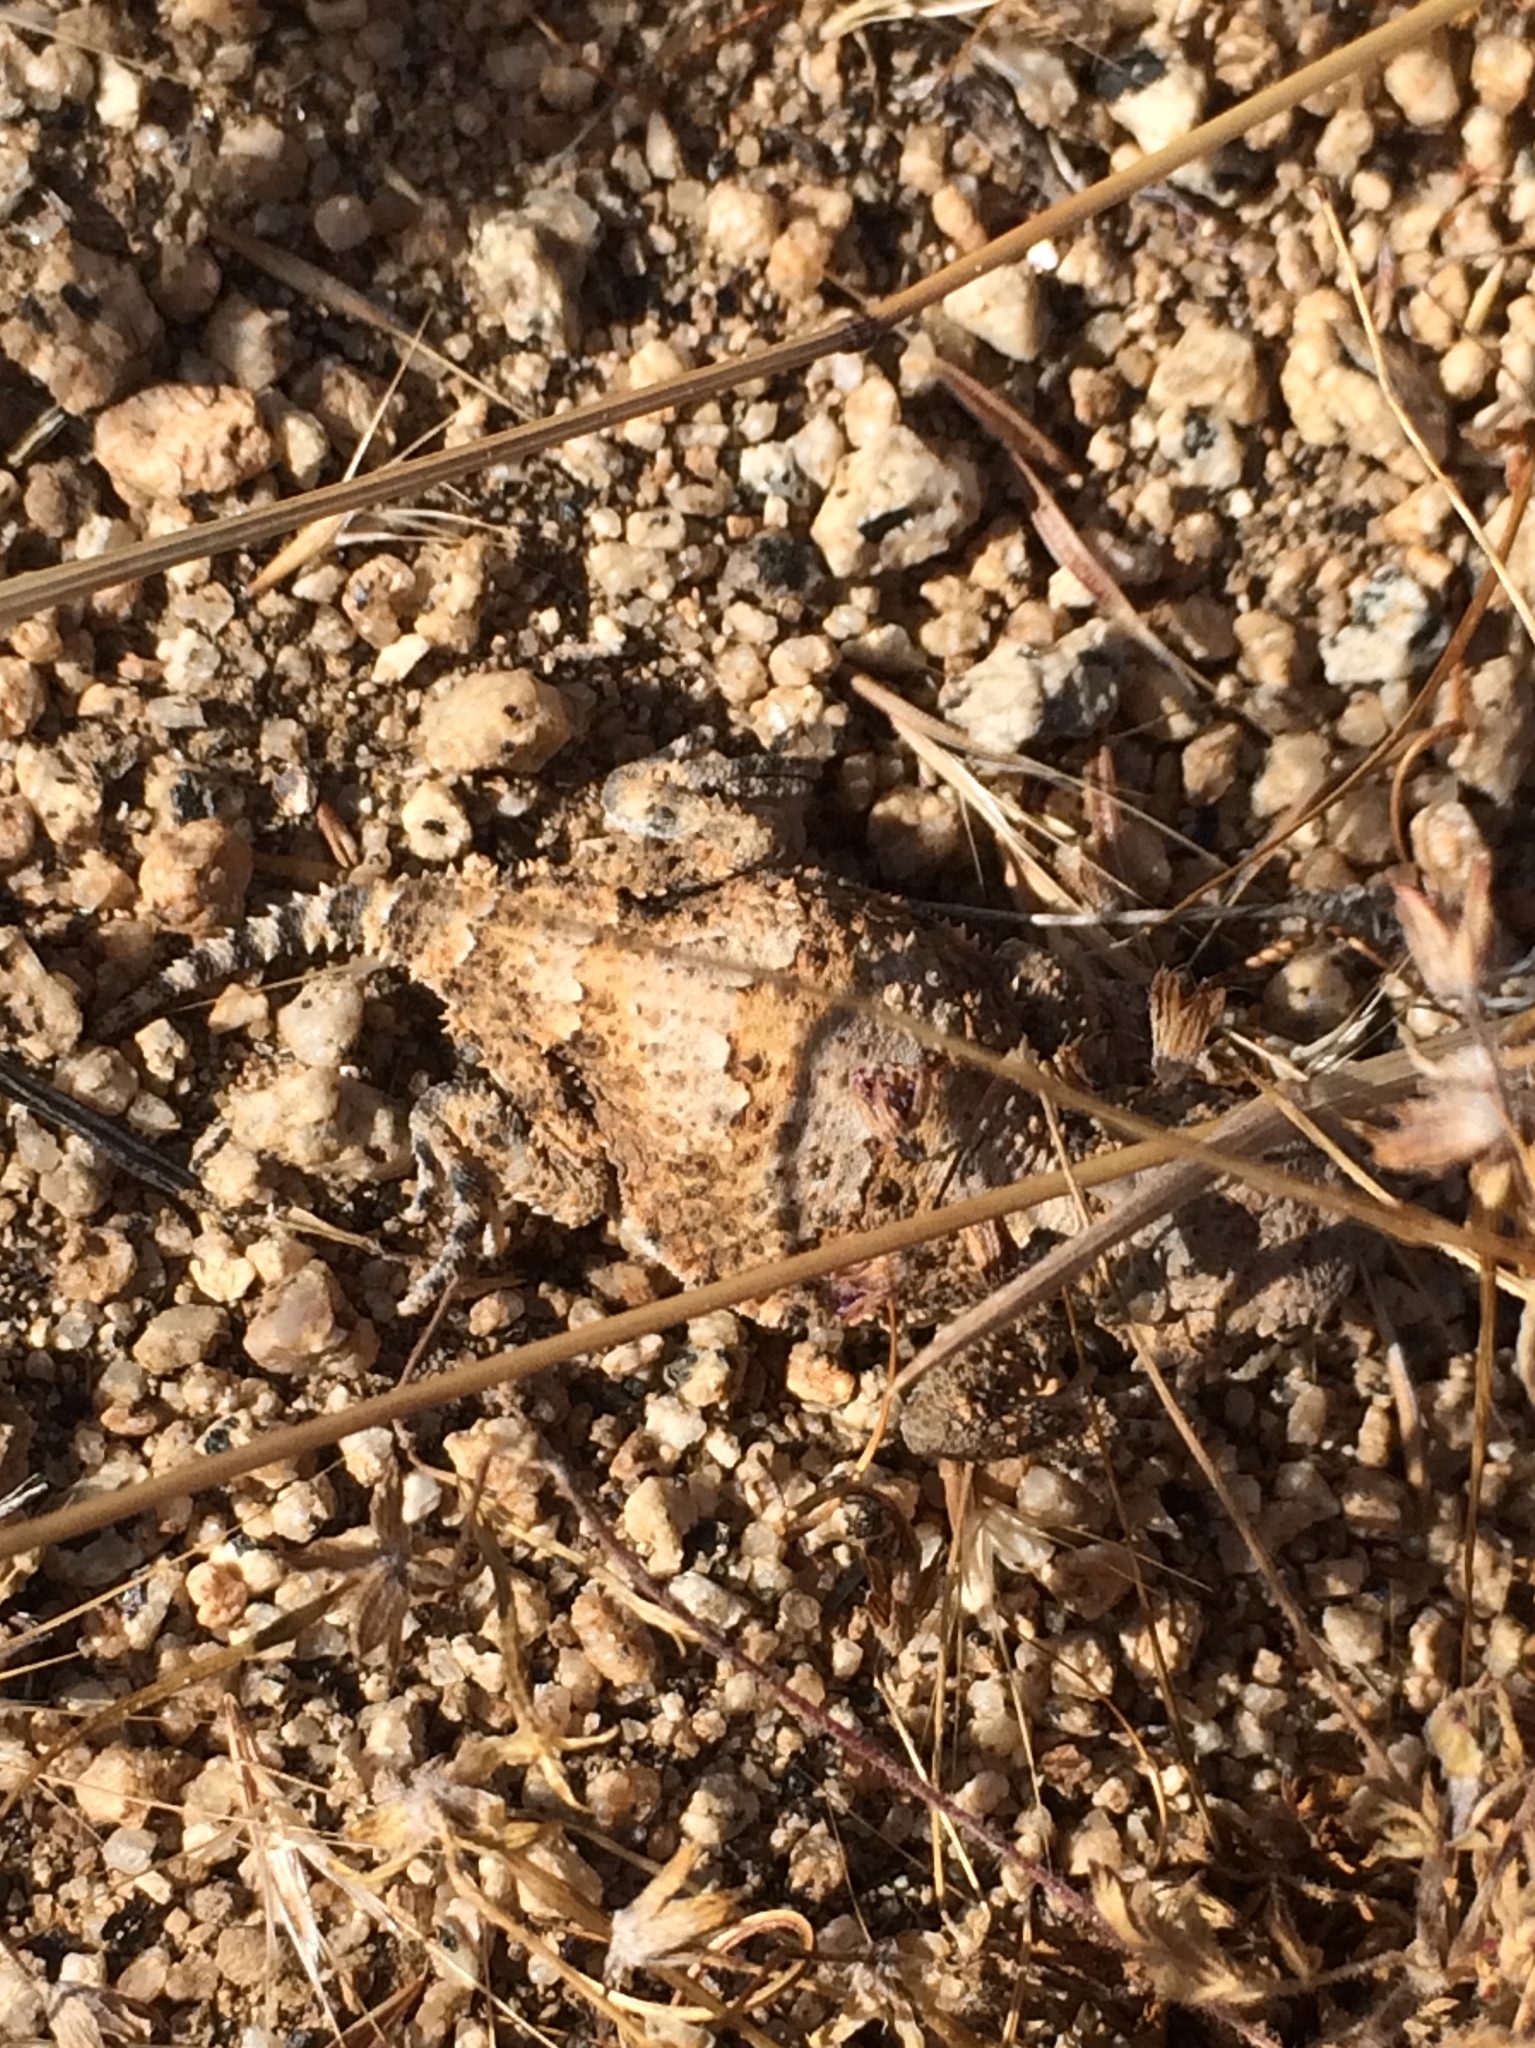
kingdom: Animalia
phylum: Chordata
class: Squamata
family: Phrynosomatidae
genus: Phrynosoma
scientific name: Phrynosoma platyrhinos
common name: Desert horned lizard
